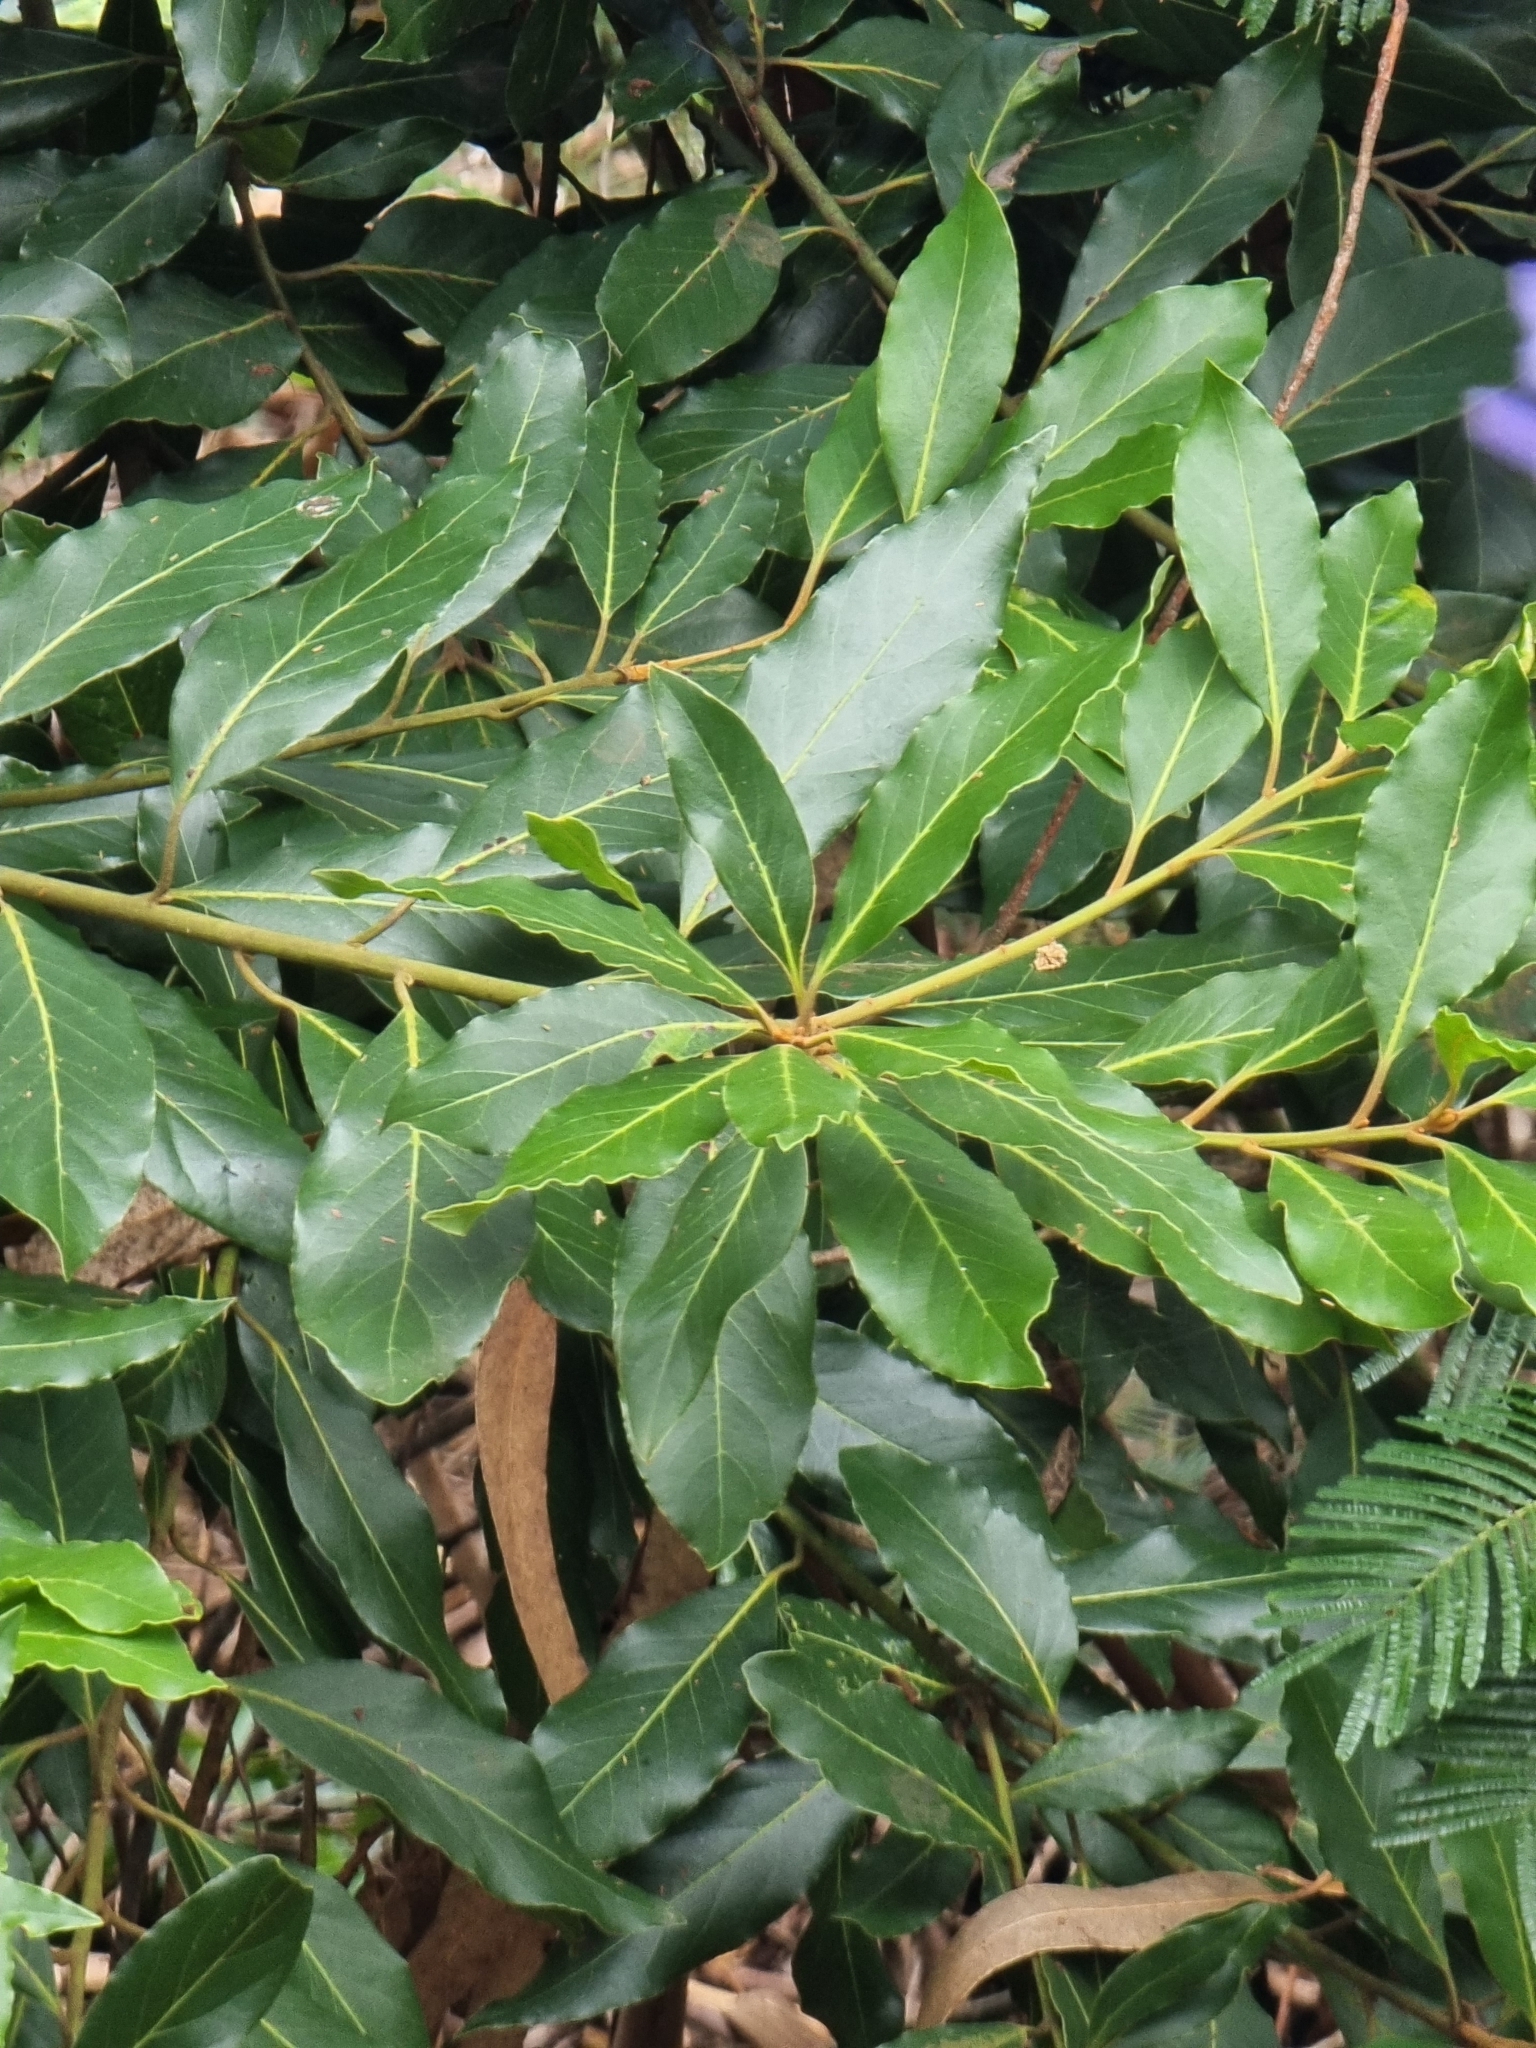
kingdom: Plantae
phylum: Tracheophyta
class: Magnoliopsida
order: Laurales
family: Lauraceae
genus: Laurus
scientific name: Laurus novocanariensis
